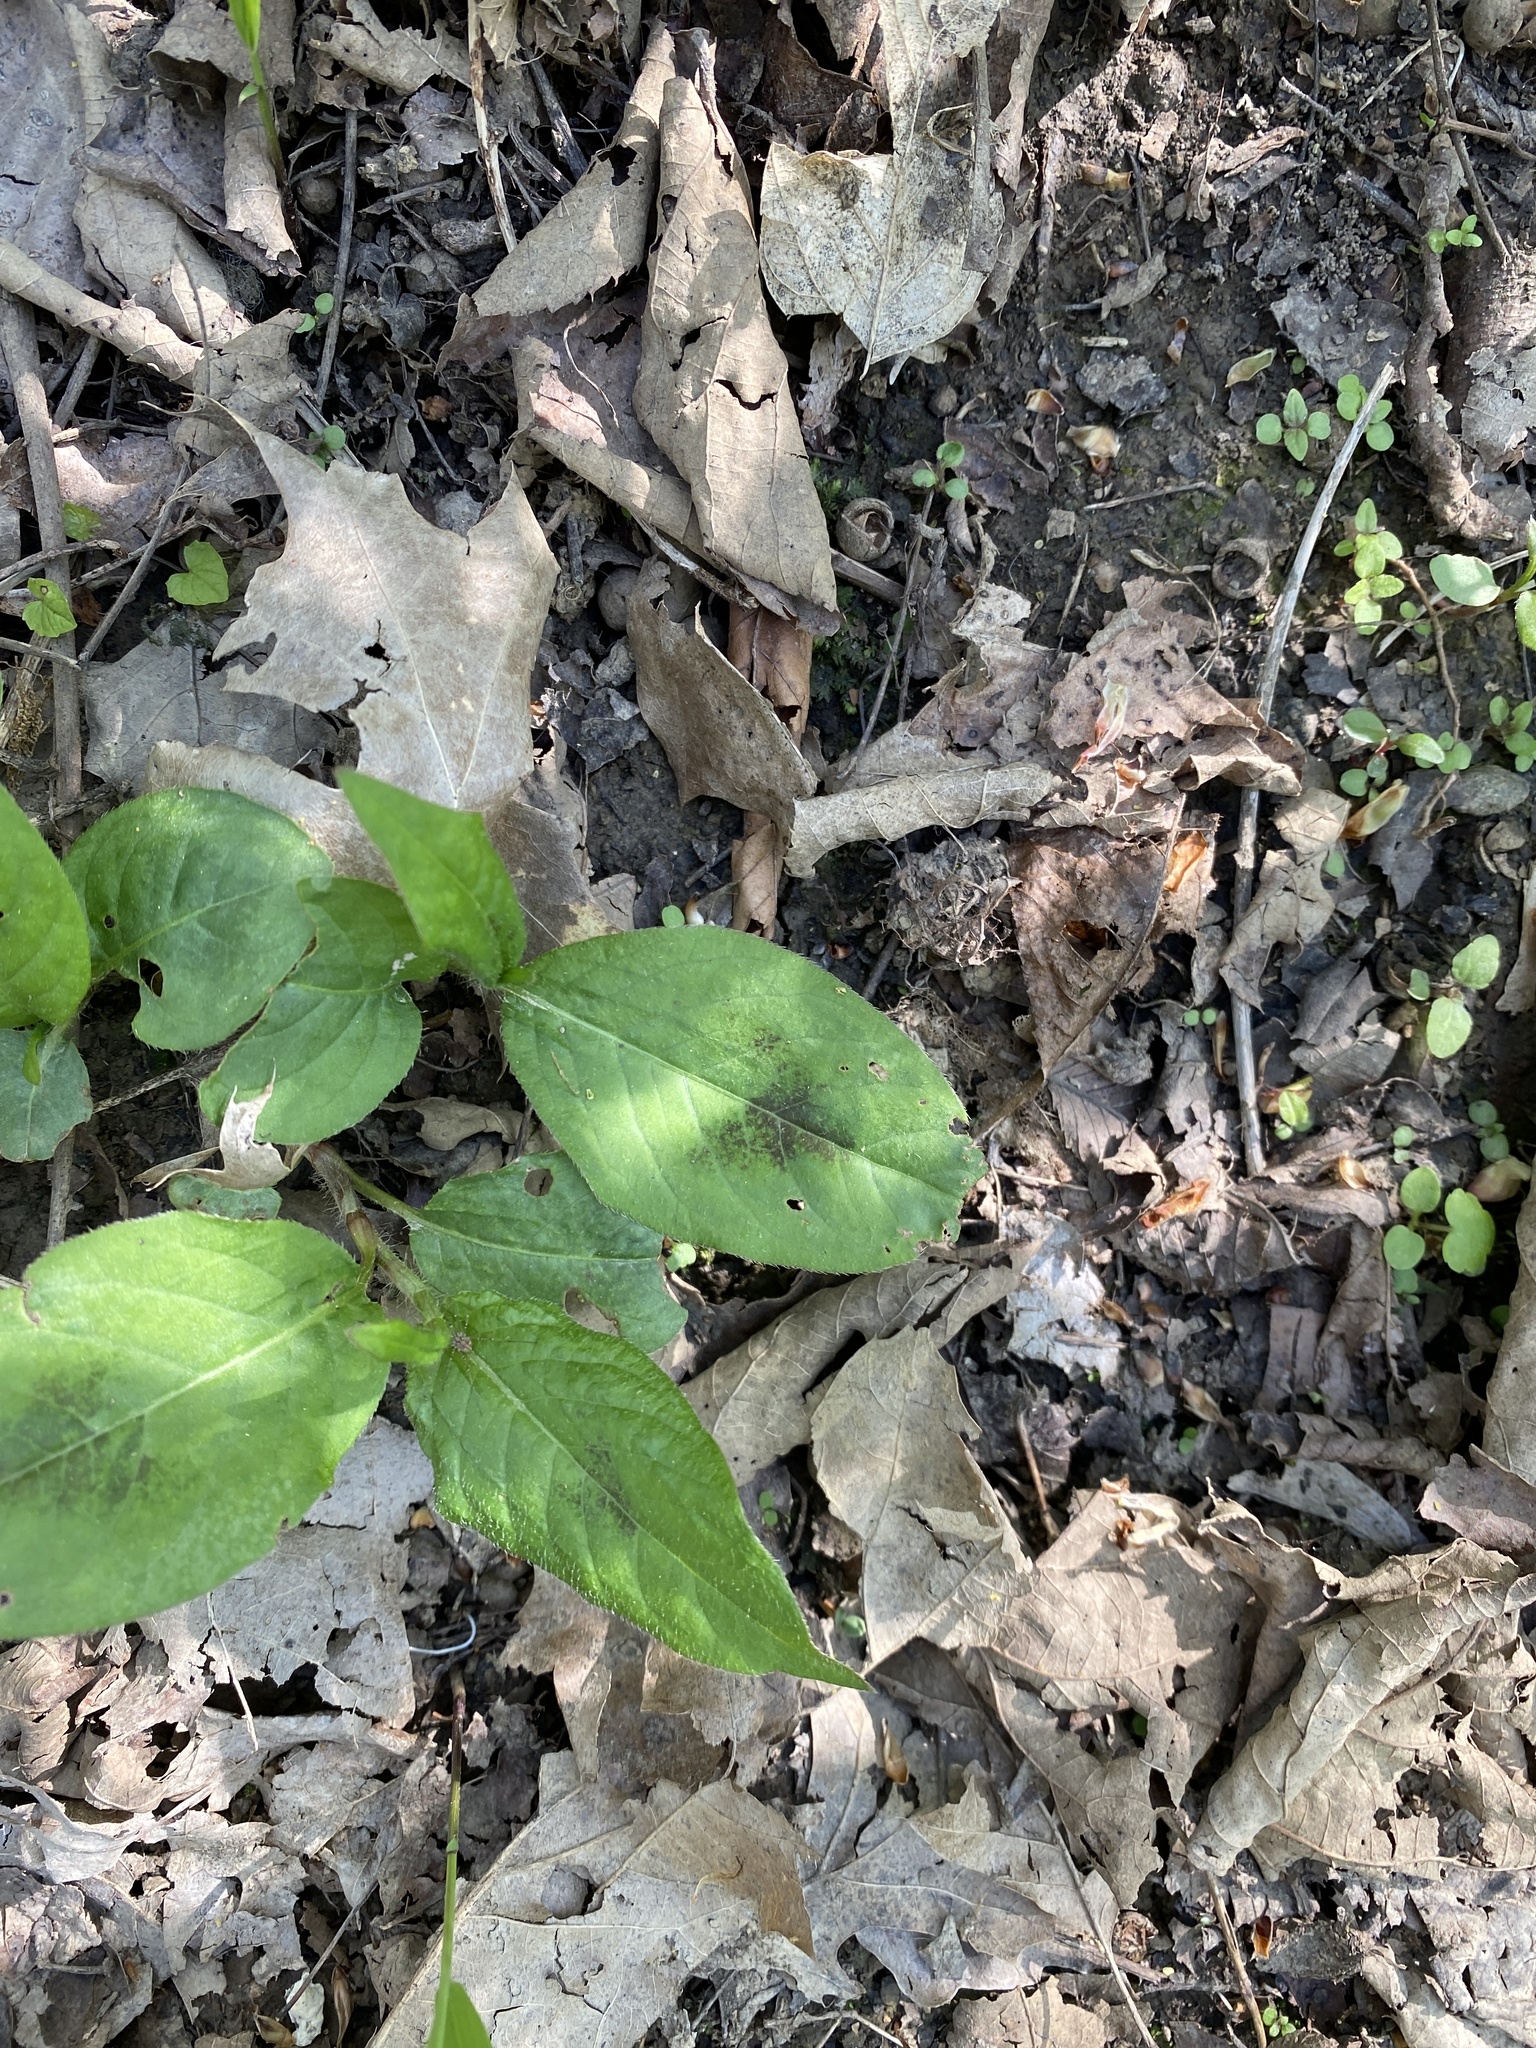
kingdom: Plantae
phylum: Tracheophyta
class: Magnoliopsida
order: Caryophyllales
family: Polygonaceae
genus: Persicaria
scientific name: Persicaria virginiana
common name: Jumpseed
